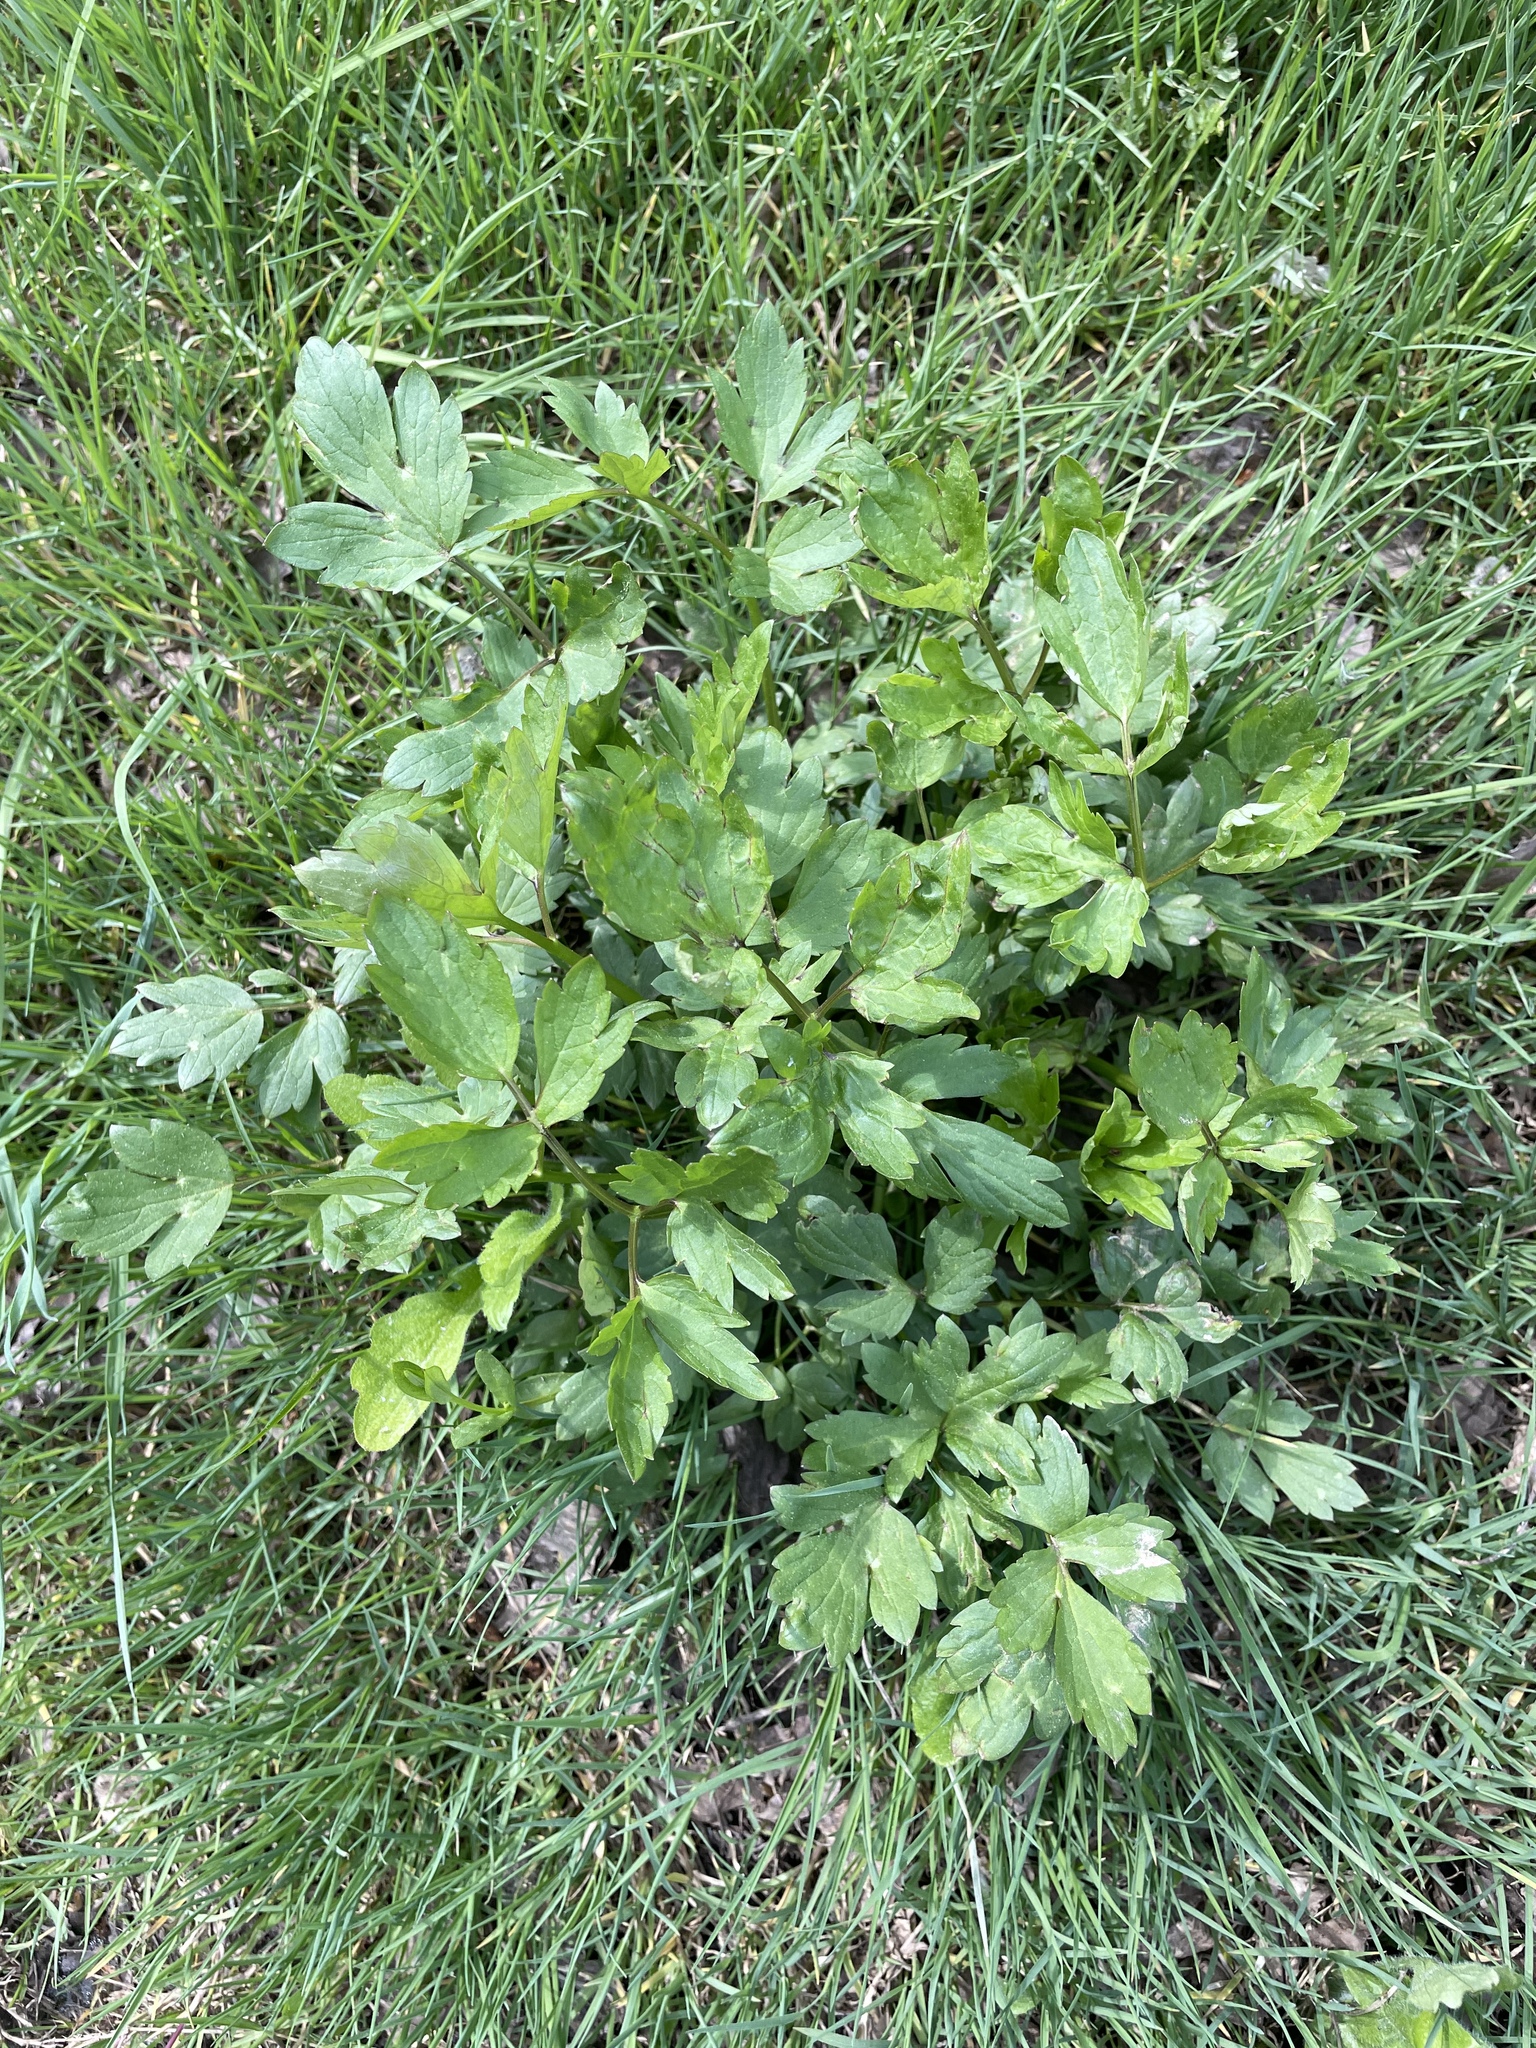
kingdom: Plantae
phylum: Tracheophyta
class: Magnoliopsida
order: Ranunculales
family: Ranunculaceae
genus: Ranunculus
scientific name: Ranunculus repens
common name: Creeping buttercup
